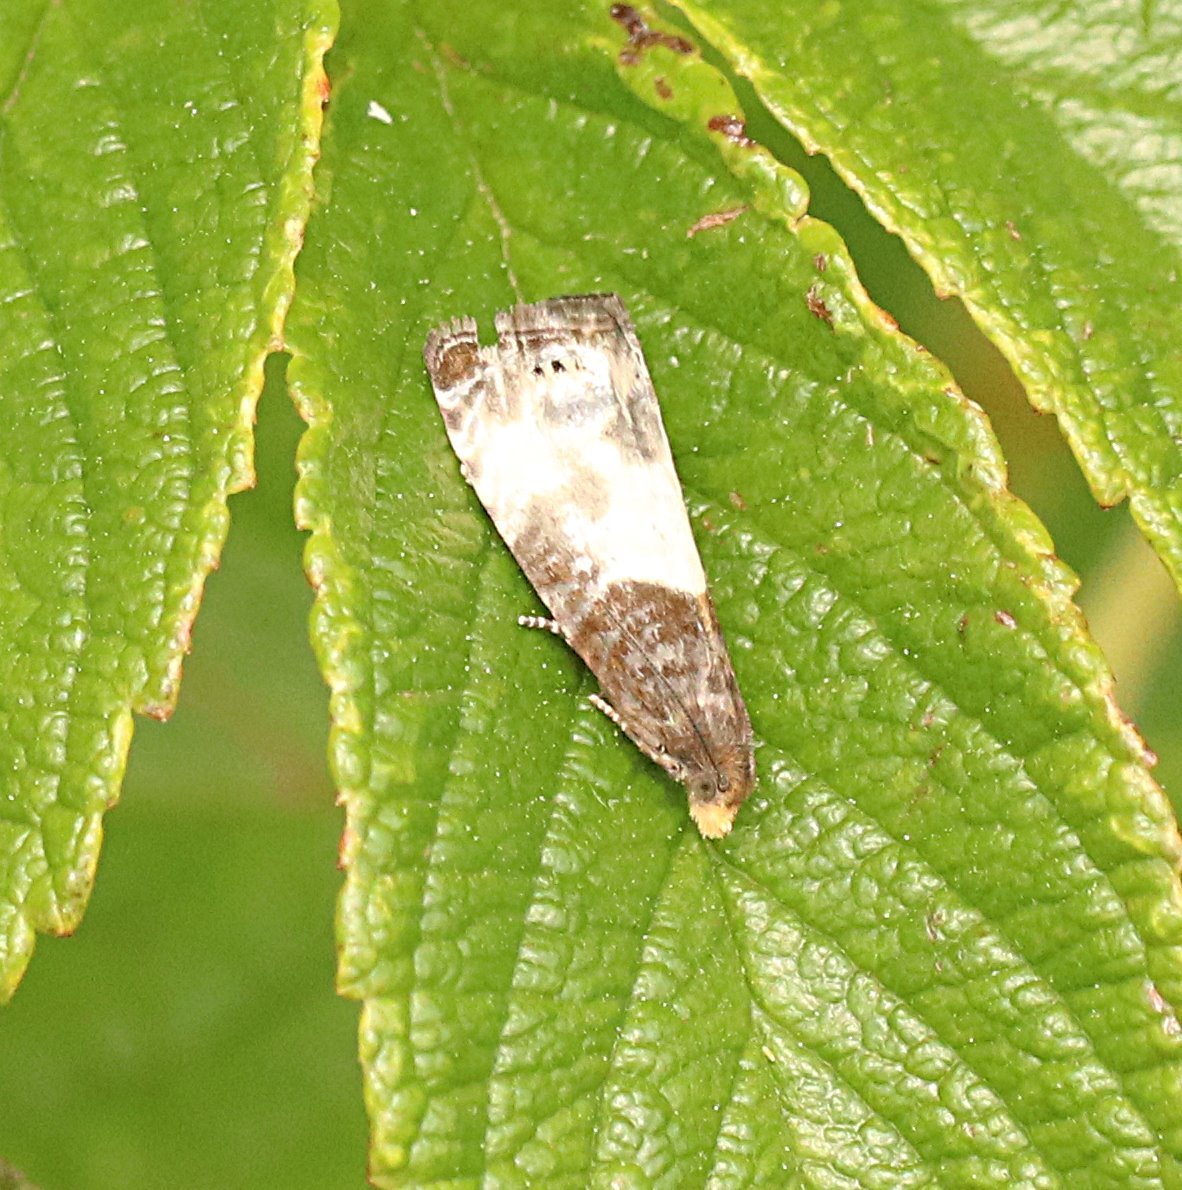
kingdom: Animalia
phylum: Arthropoda
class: Insecta
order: Lepidoptera
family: Tortricidae
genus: Notocelia
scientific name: Notocelia cynosbatella
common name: Yellow-faced bell moth
